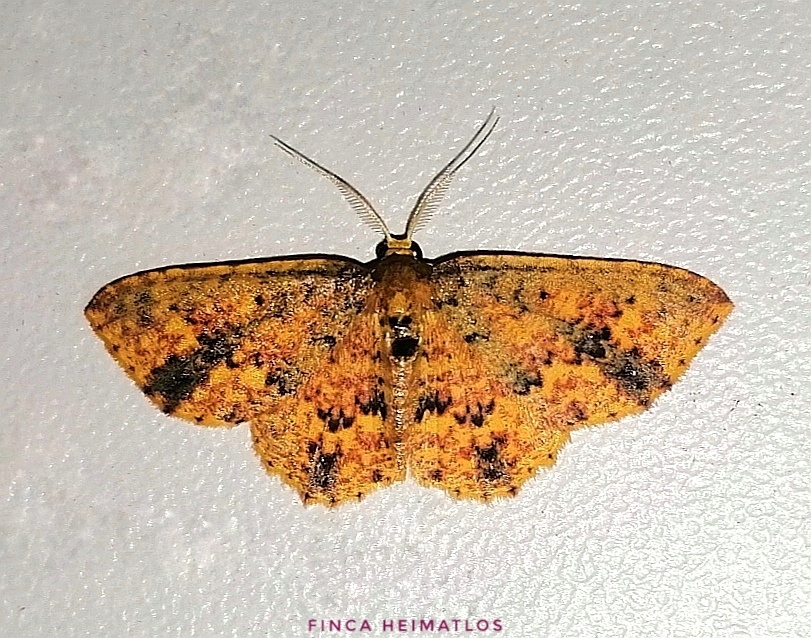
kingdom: Animalia
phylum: Arthropoda
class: Insecta
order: Lepidoptera
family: Geometridae
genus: Eois
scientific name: Eois basaliata
